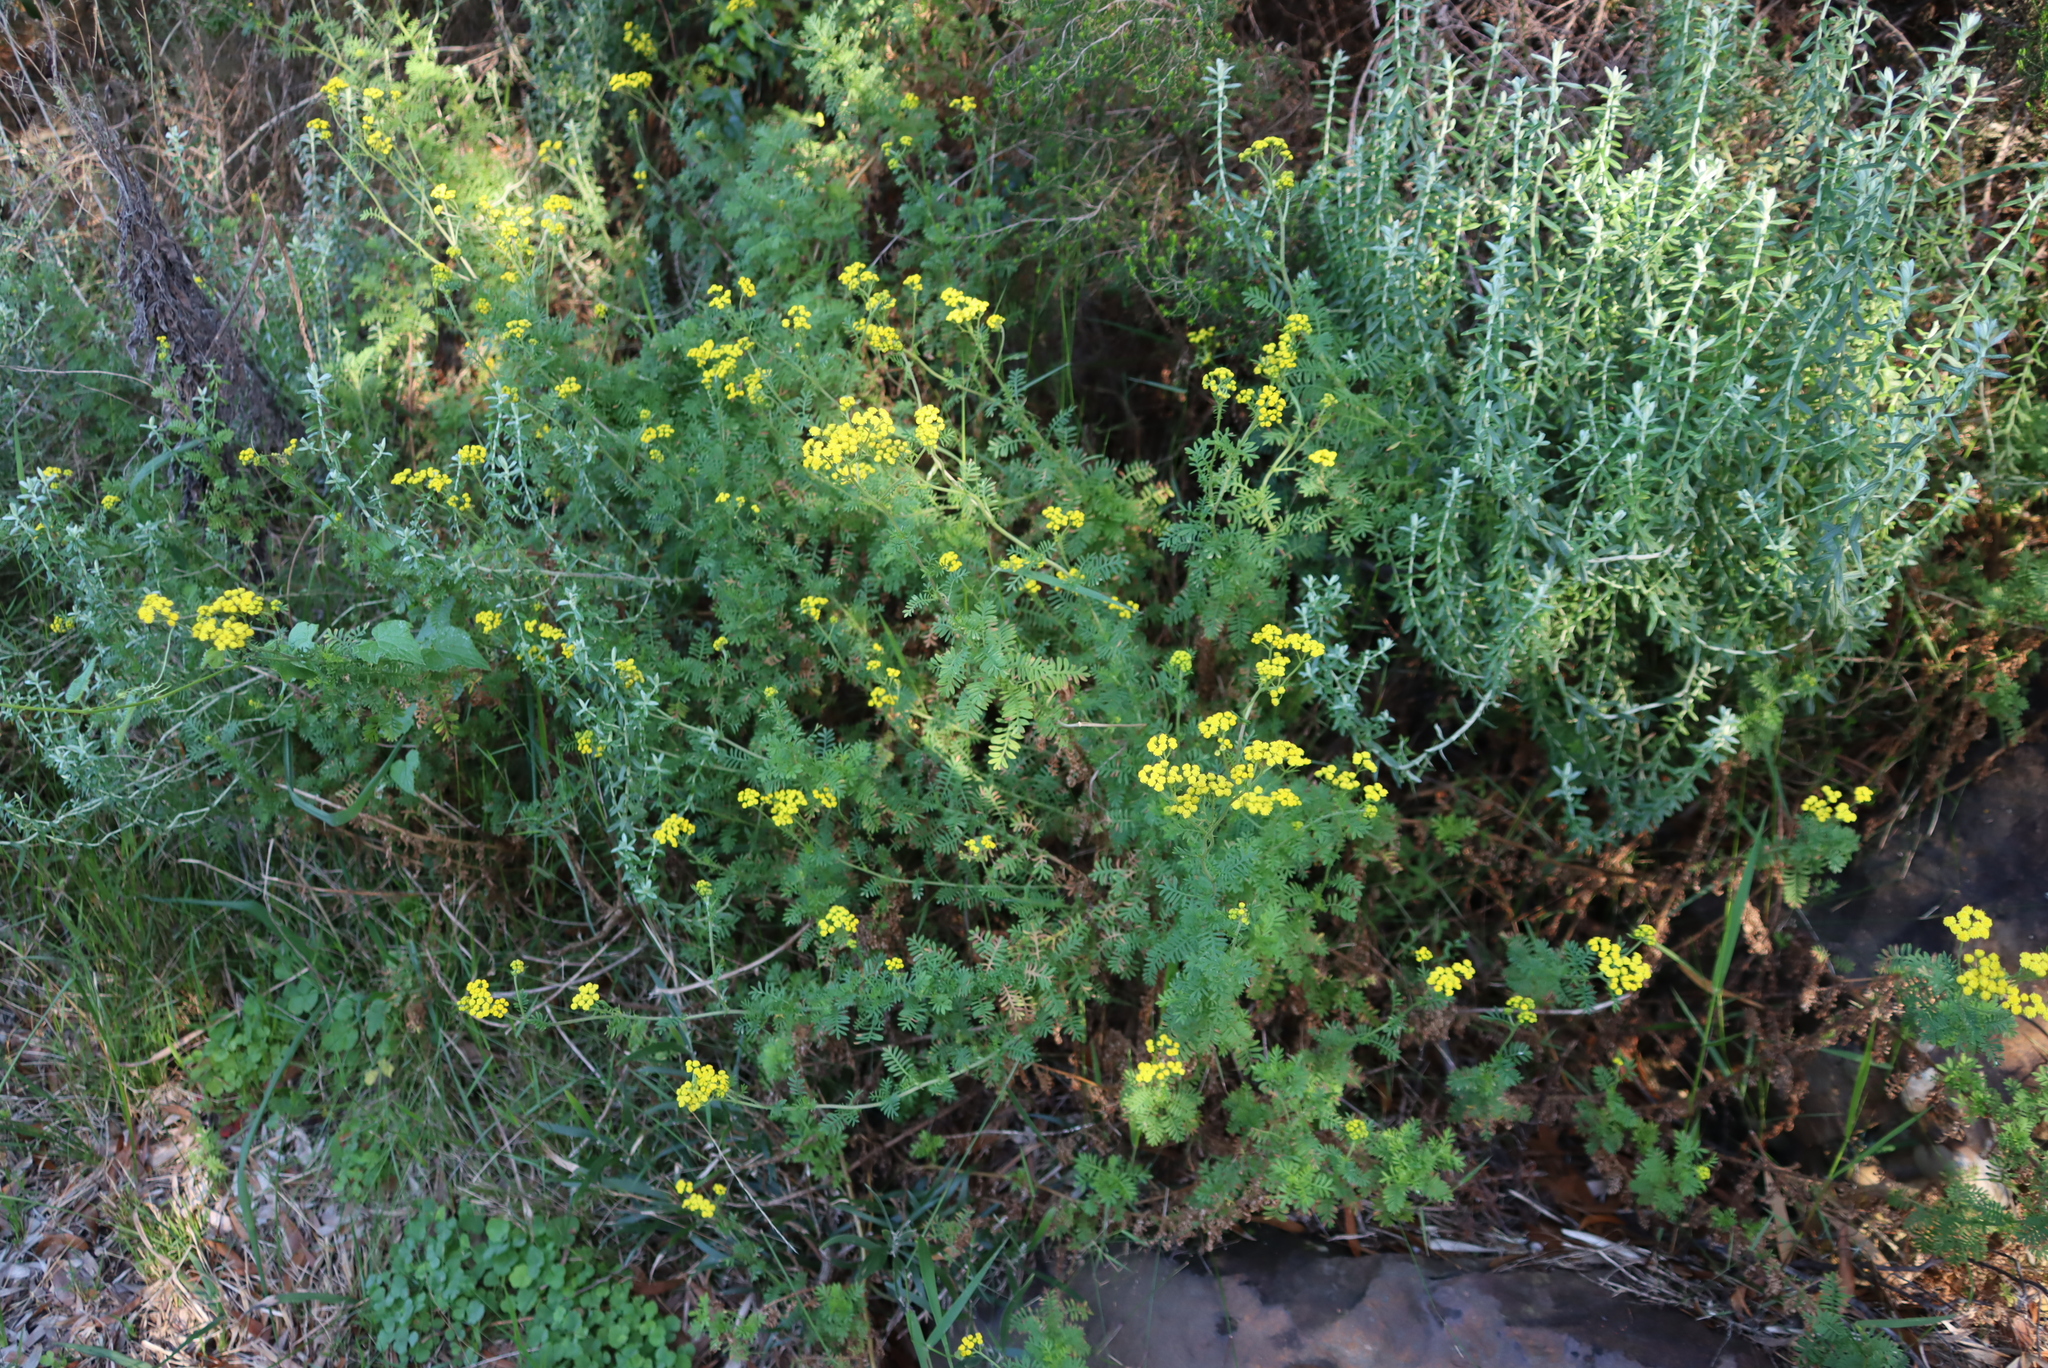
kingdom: Plantae
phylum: Tracheophyta
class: Magnoliopsida
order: Asterales
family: Asteraceae
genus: Hippia
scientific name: Hippia frutescens
